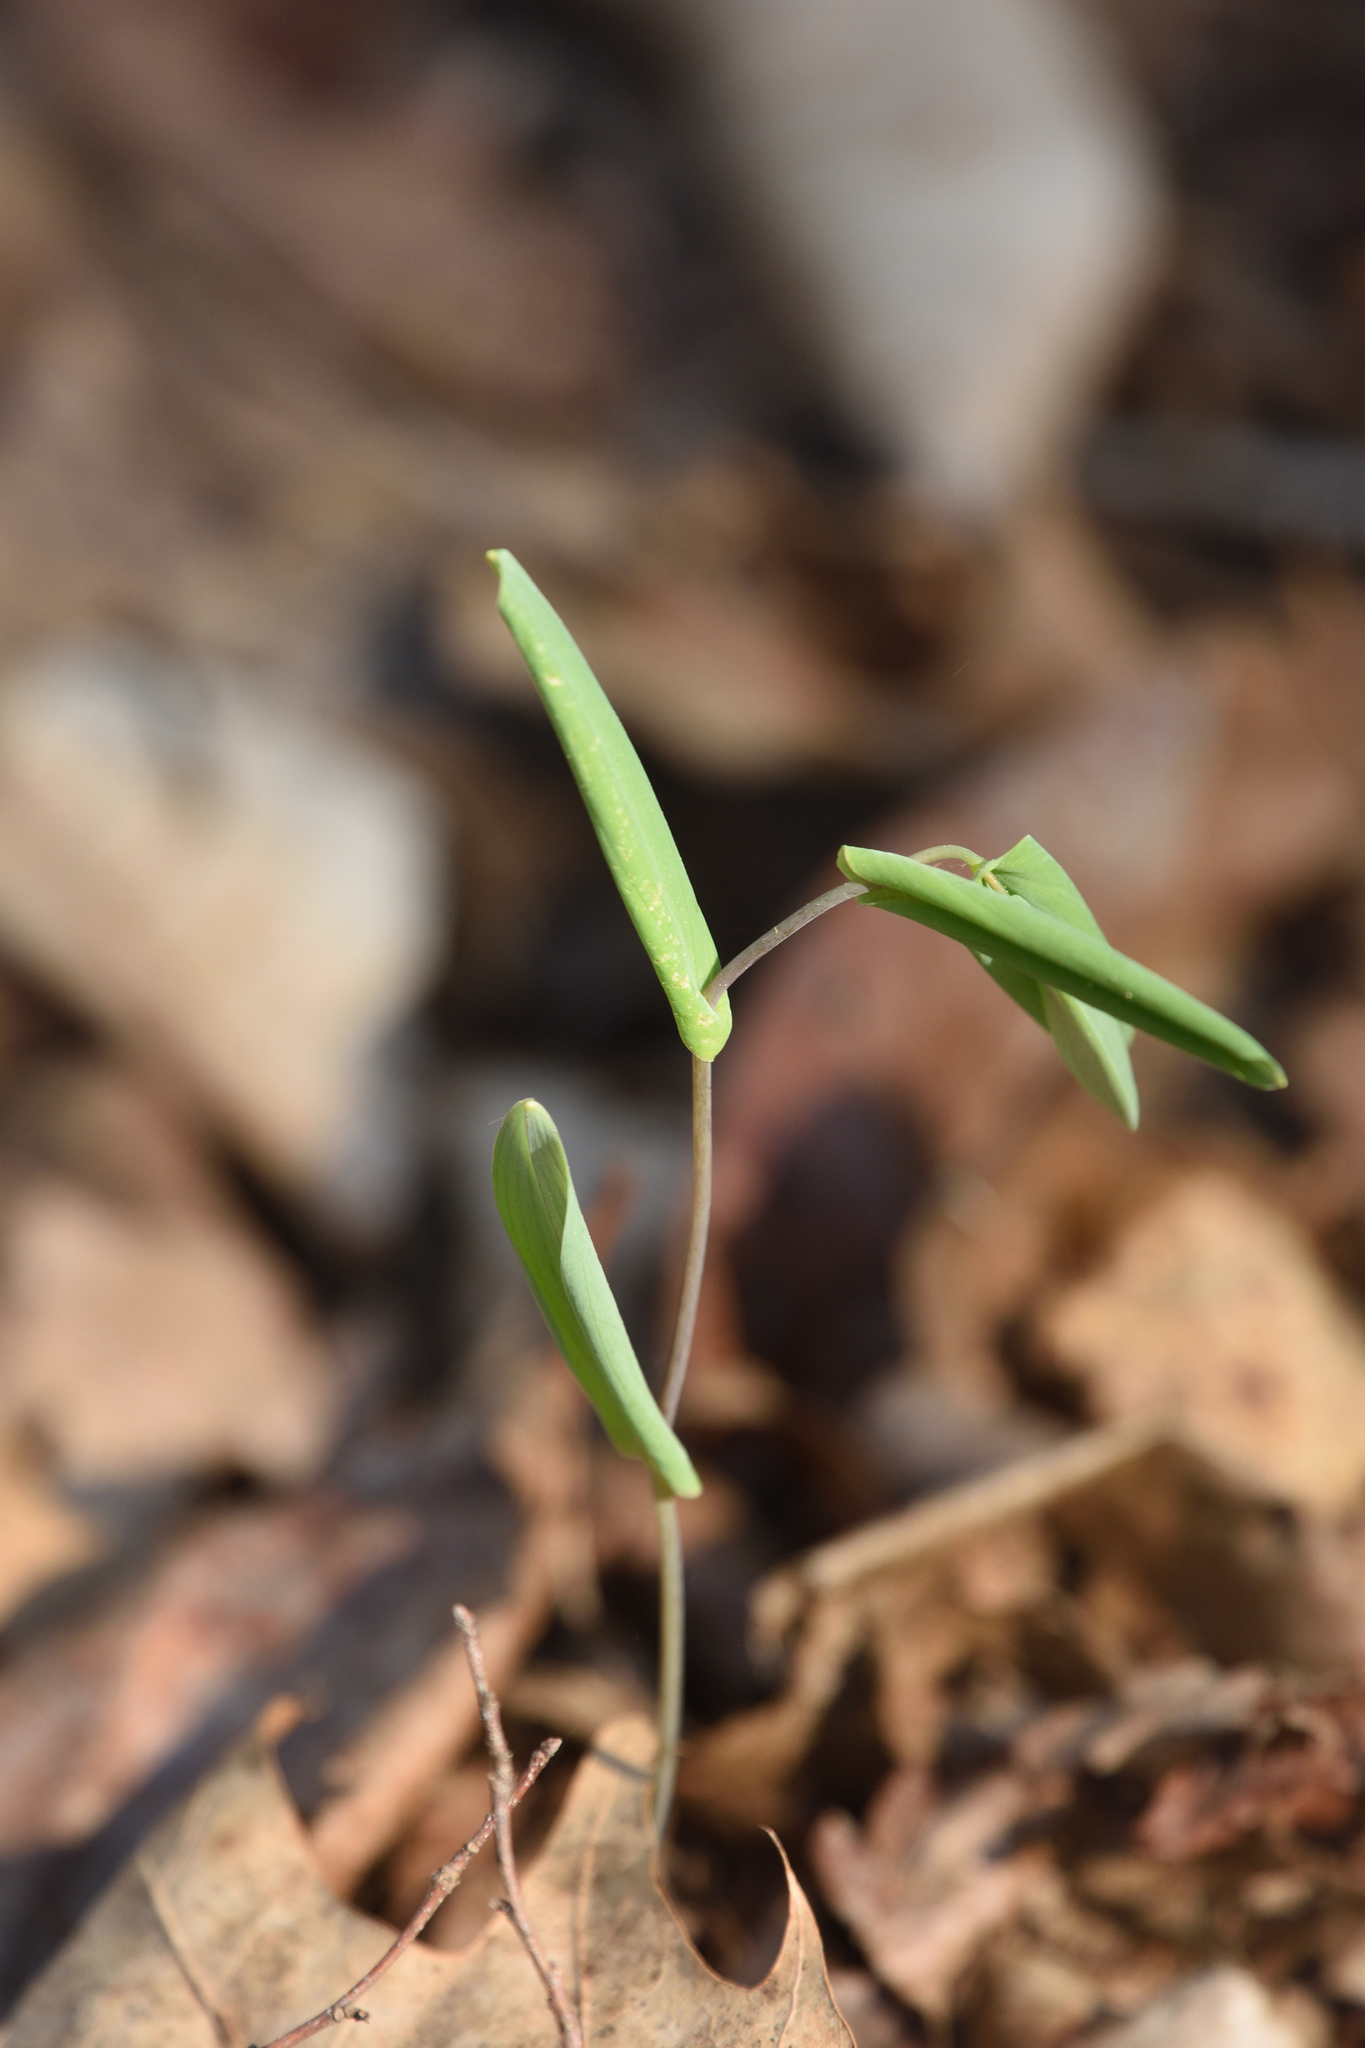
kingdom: Plantae
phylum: Tracheophyta
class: Liliopsida
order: Liliales
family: Colchicaceae
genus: Uvularia
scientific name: Uvularia perfoliata
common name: Perfoliate bellwort
